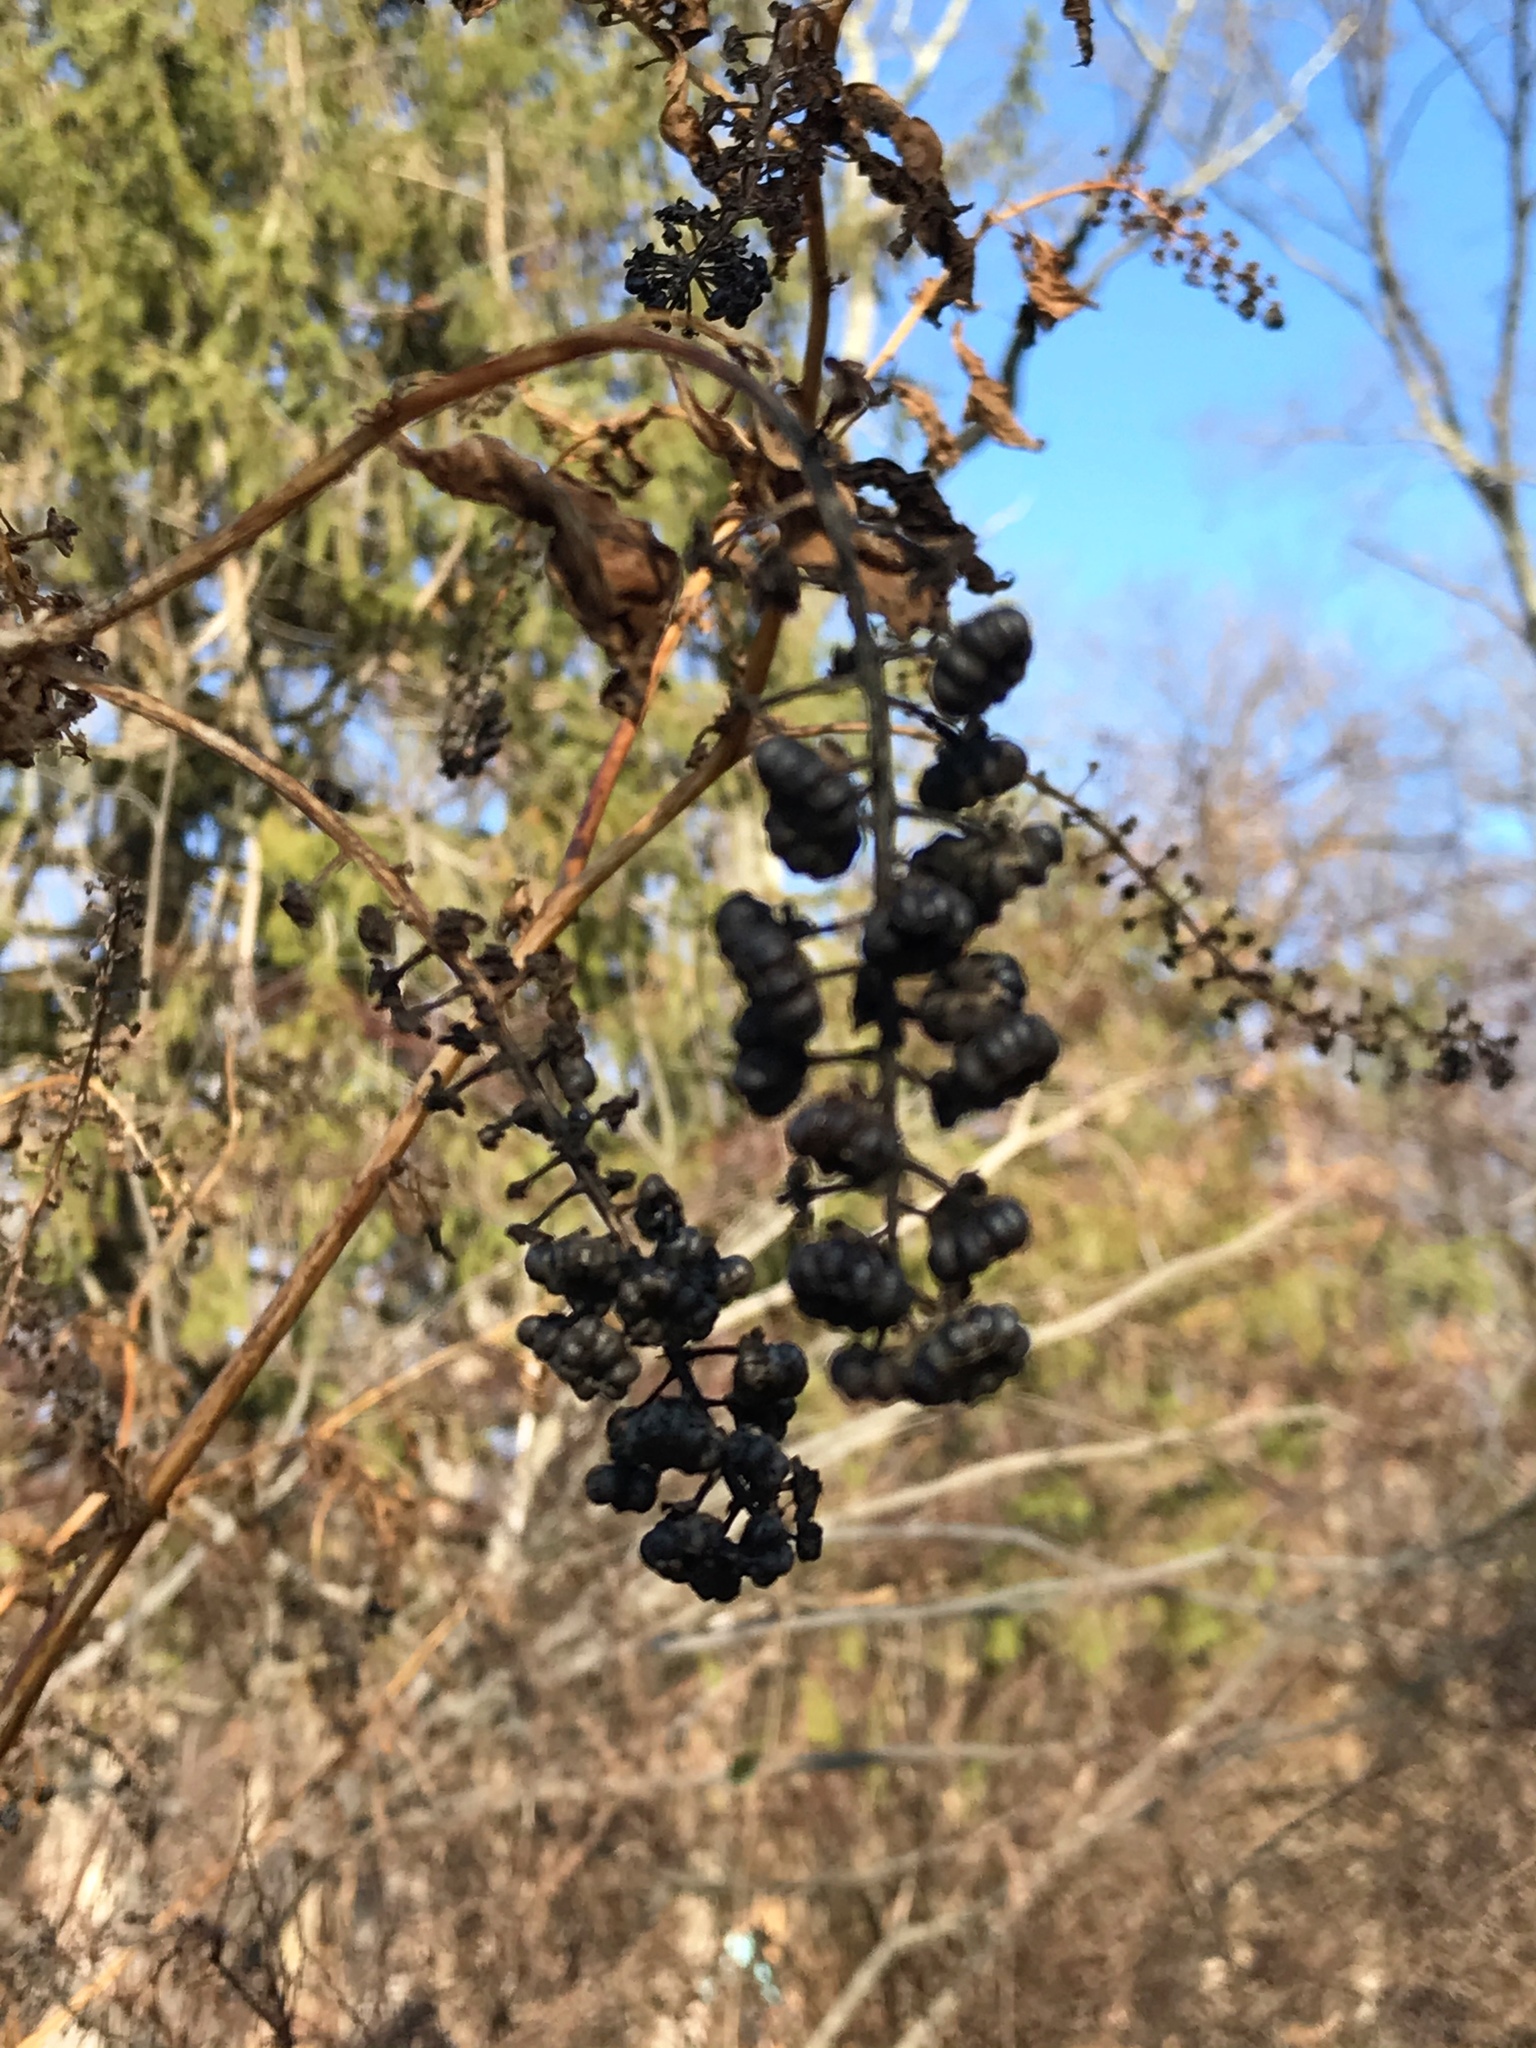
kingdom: Plantae
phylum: Tracheophyta
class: Magnoliopsida
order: Caryophyllales
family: Phytolaccaceae
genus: Phytolacca
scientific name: Phytolacca americana
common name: American pokeweed
